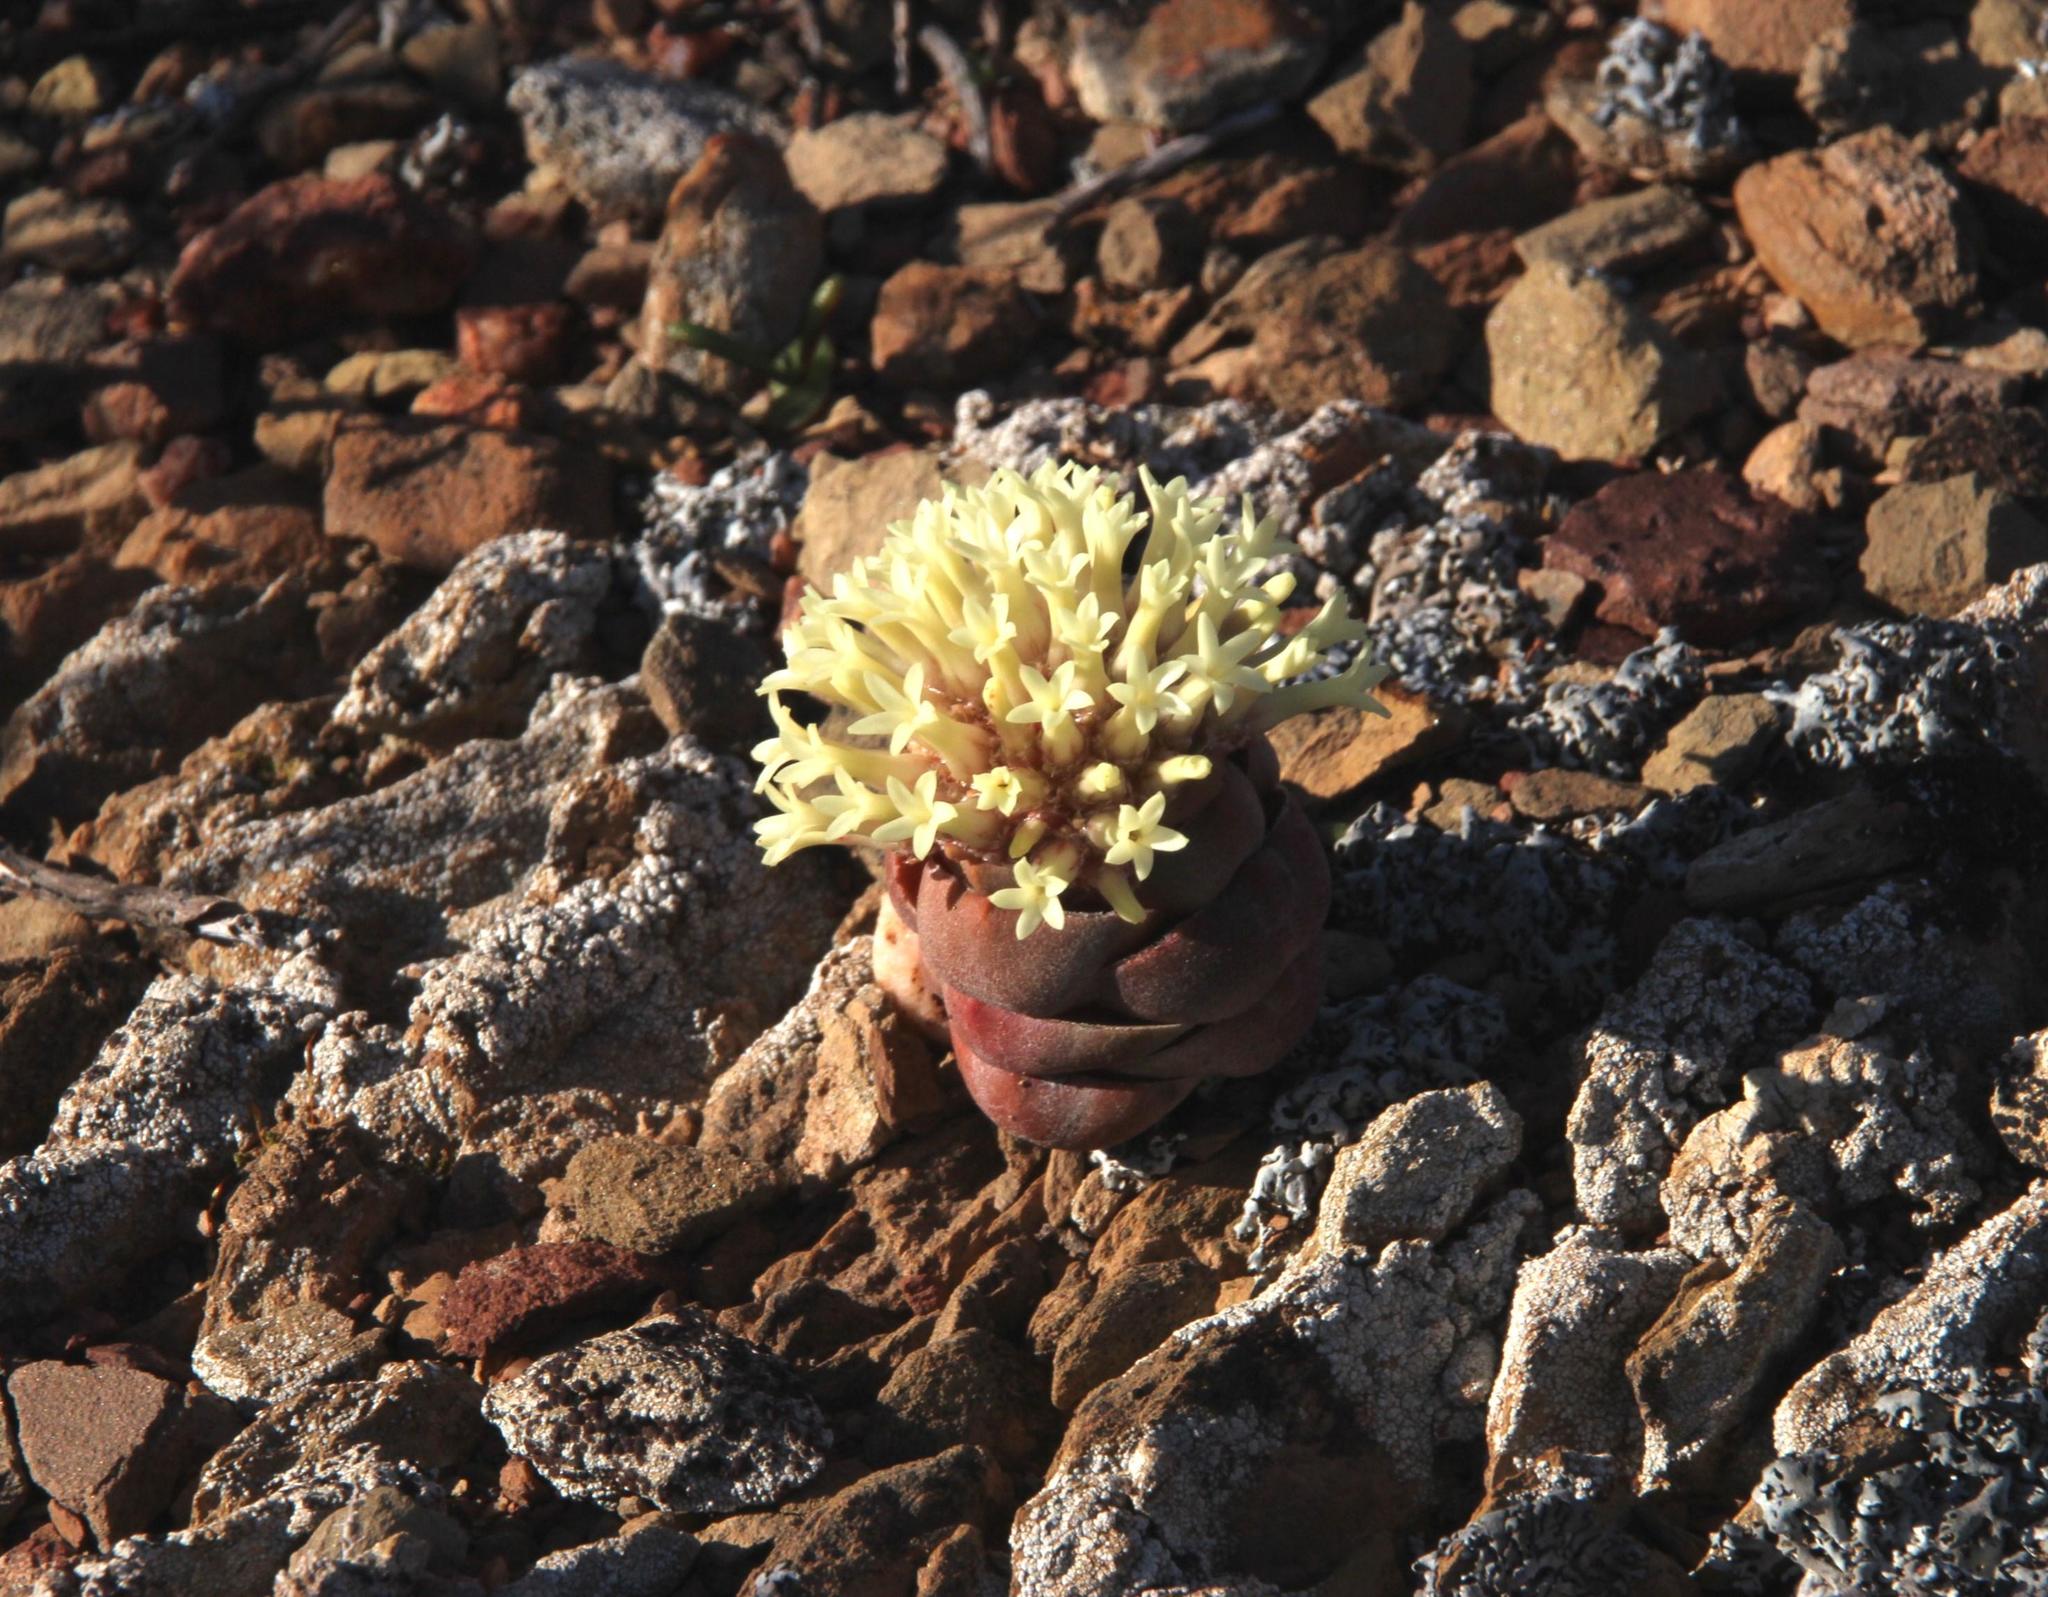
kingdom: Plantae
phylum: Tracheophyta
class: Magnoliopsida
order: Saxifragales
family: Crassulaceae
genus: Crassula
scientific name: Crassula columnaris
